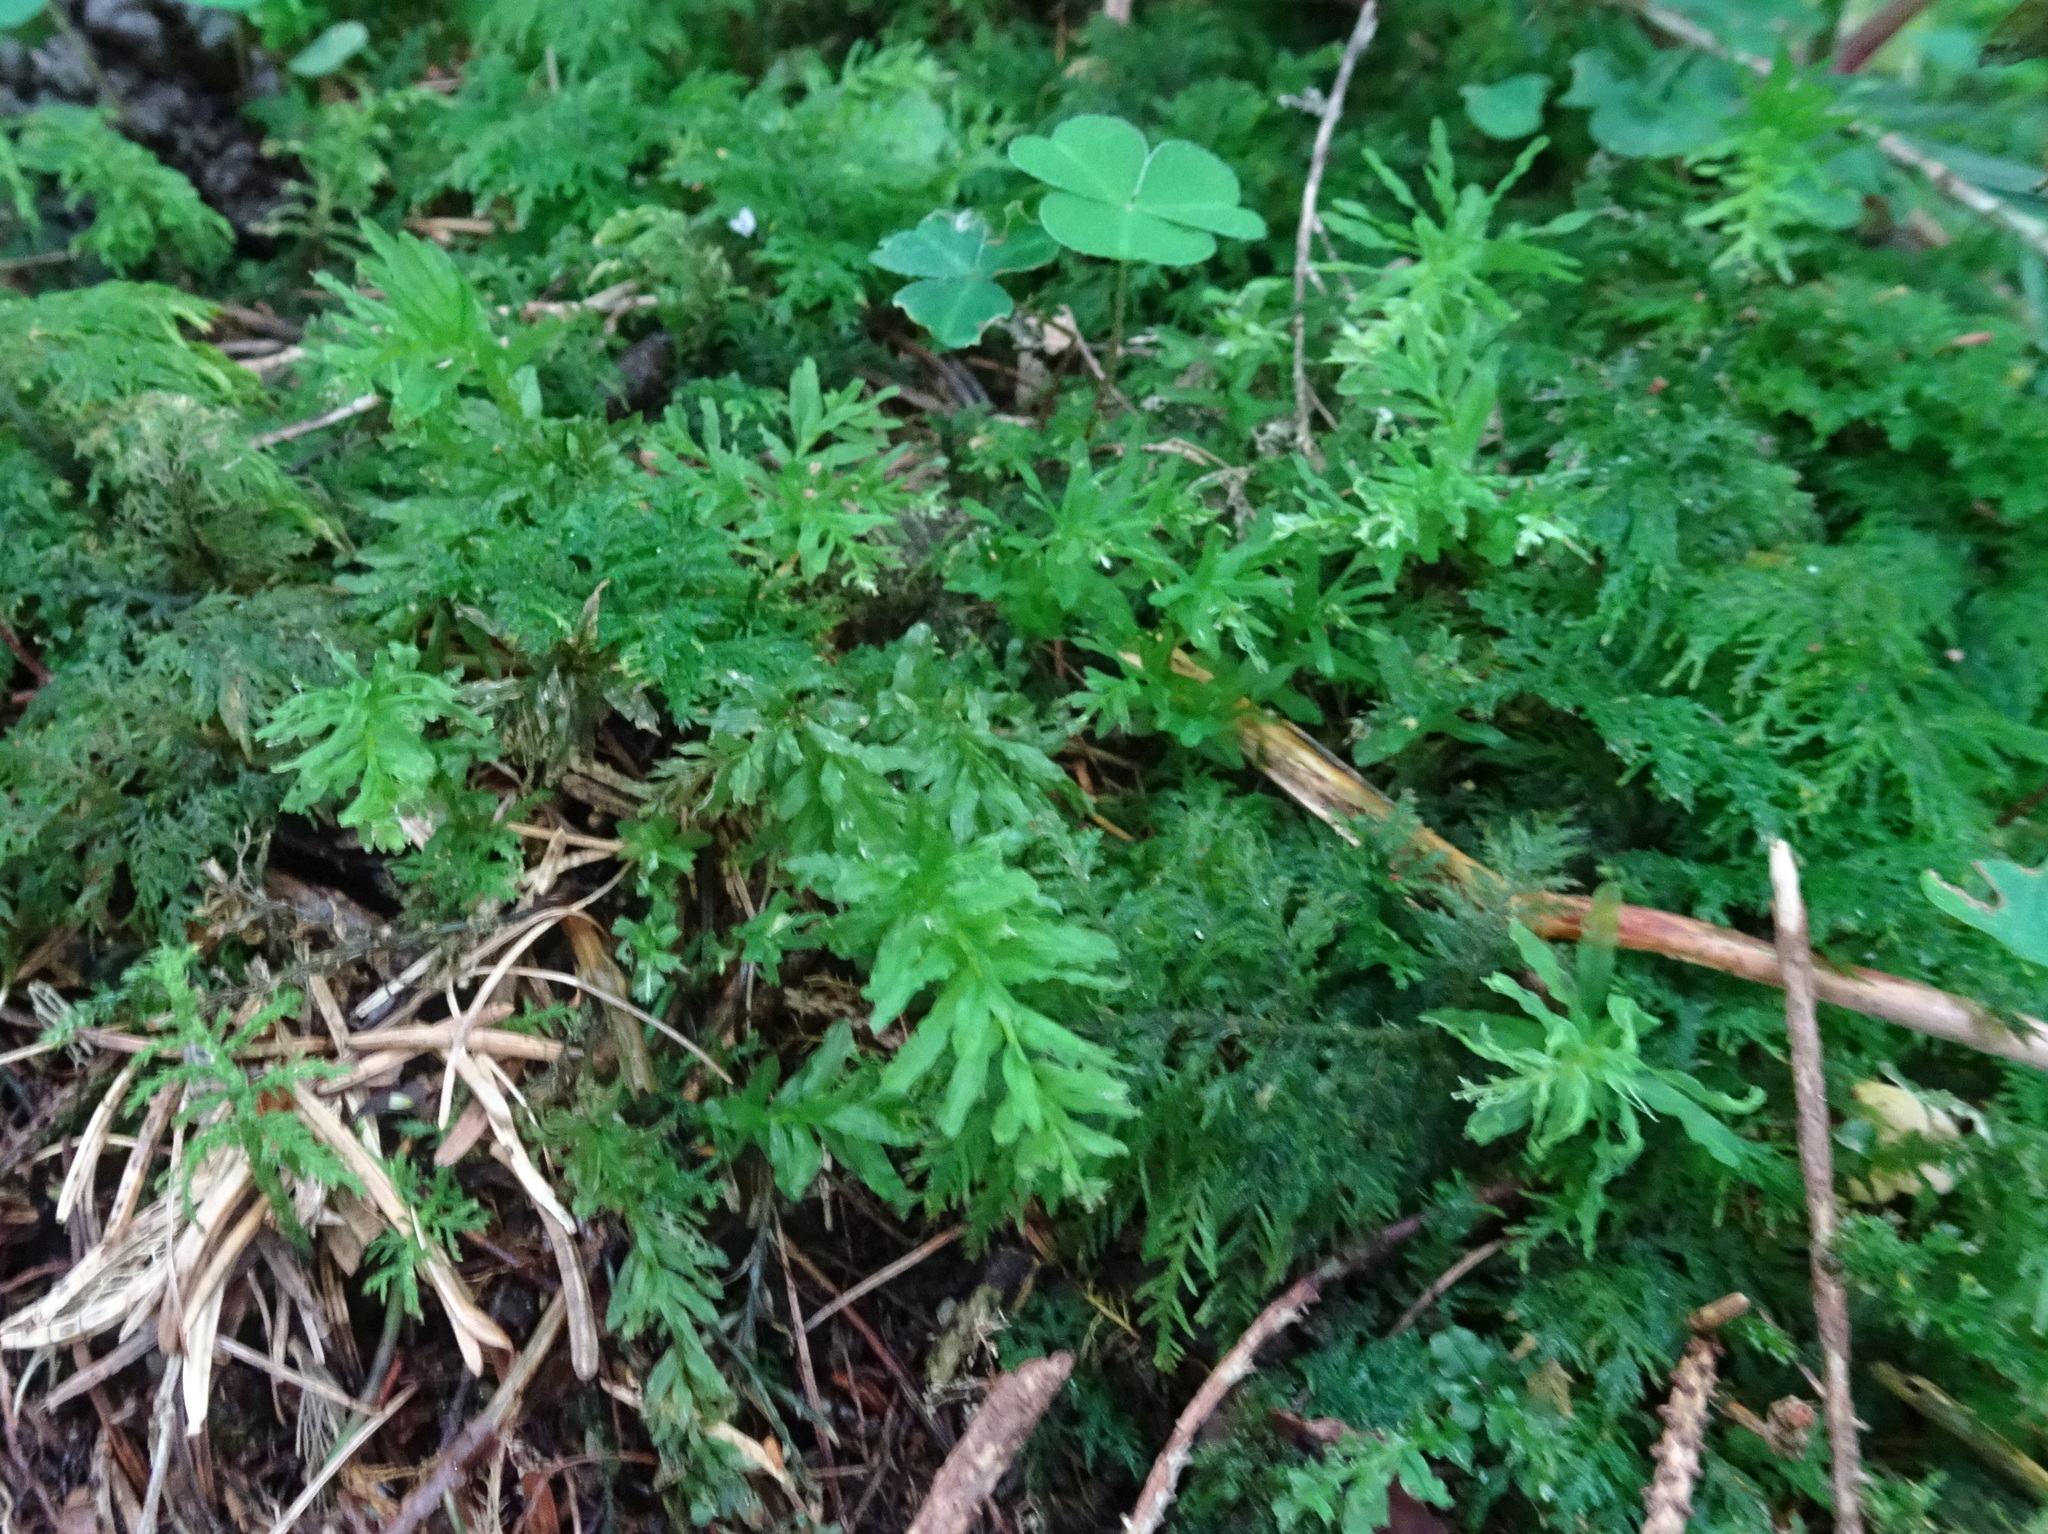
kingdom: Plantae
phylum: Bryophyta
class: Bryopsida
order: Bryales
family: Mniaceae
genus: Plagiomnium
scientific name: Plagiomnium undulatum
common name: Hart's-tongue thyme-moss
